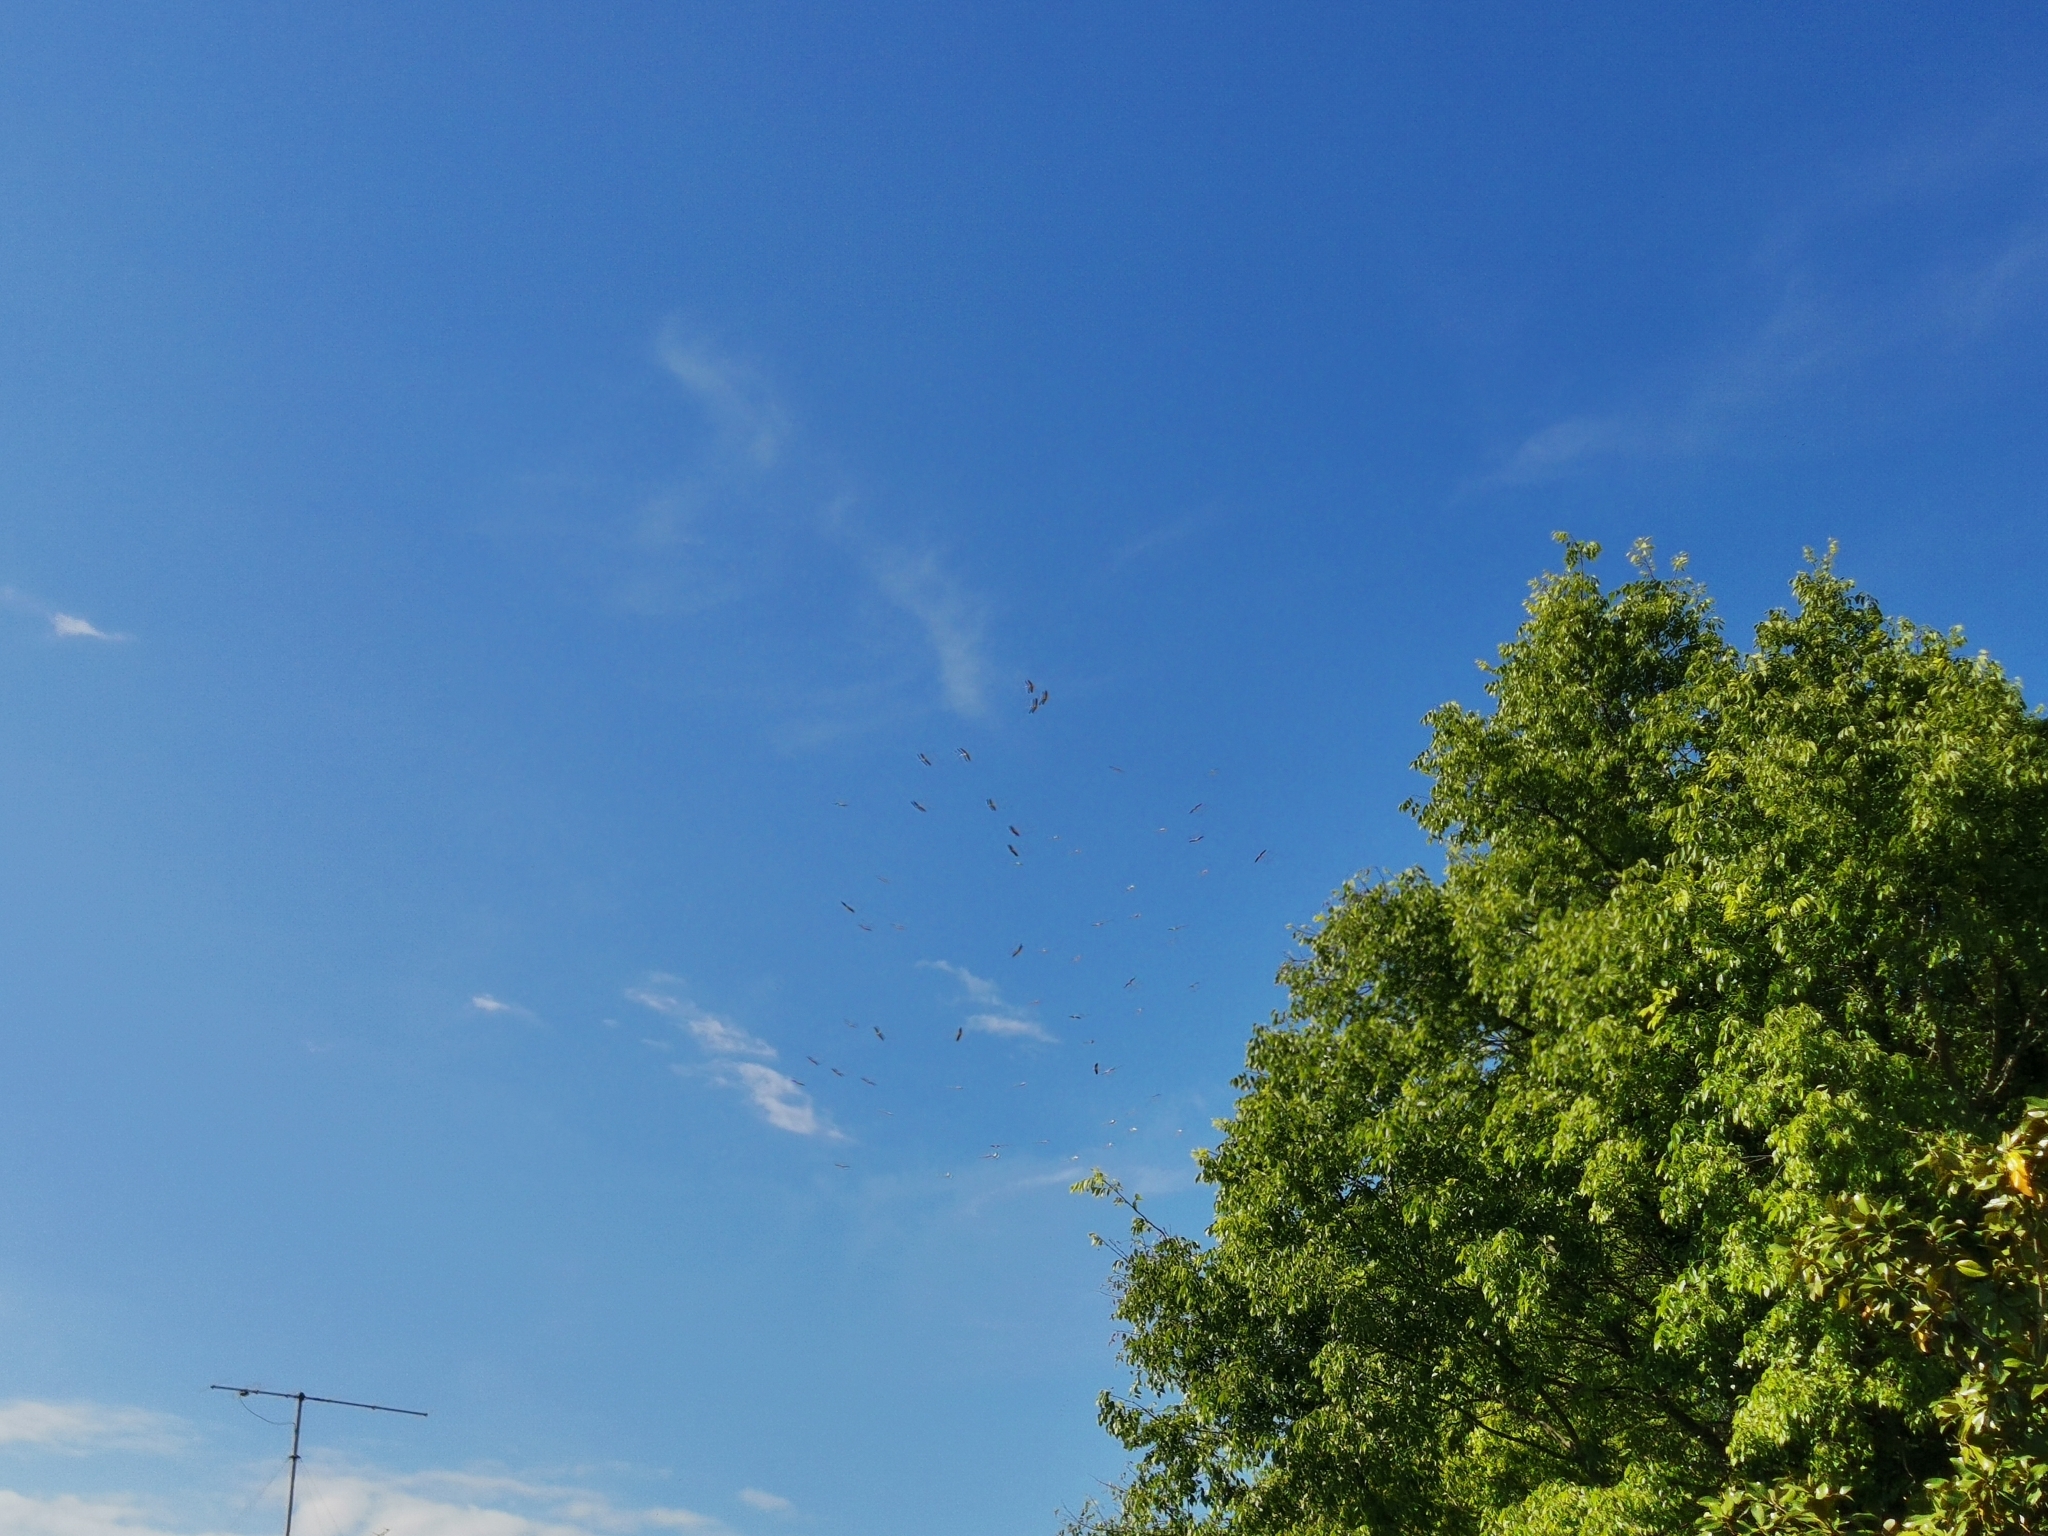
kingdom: Animalia
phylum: Chordata
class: Aves
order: Ciconiiformes
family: Ciconiidae
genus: Ciconia
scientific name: Ciconia ciconia
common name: White stork
